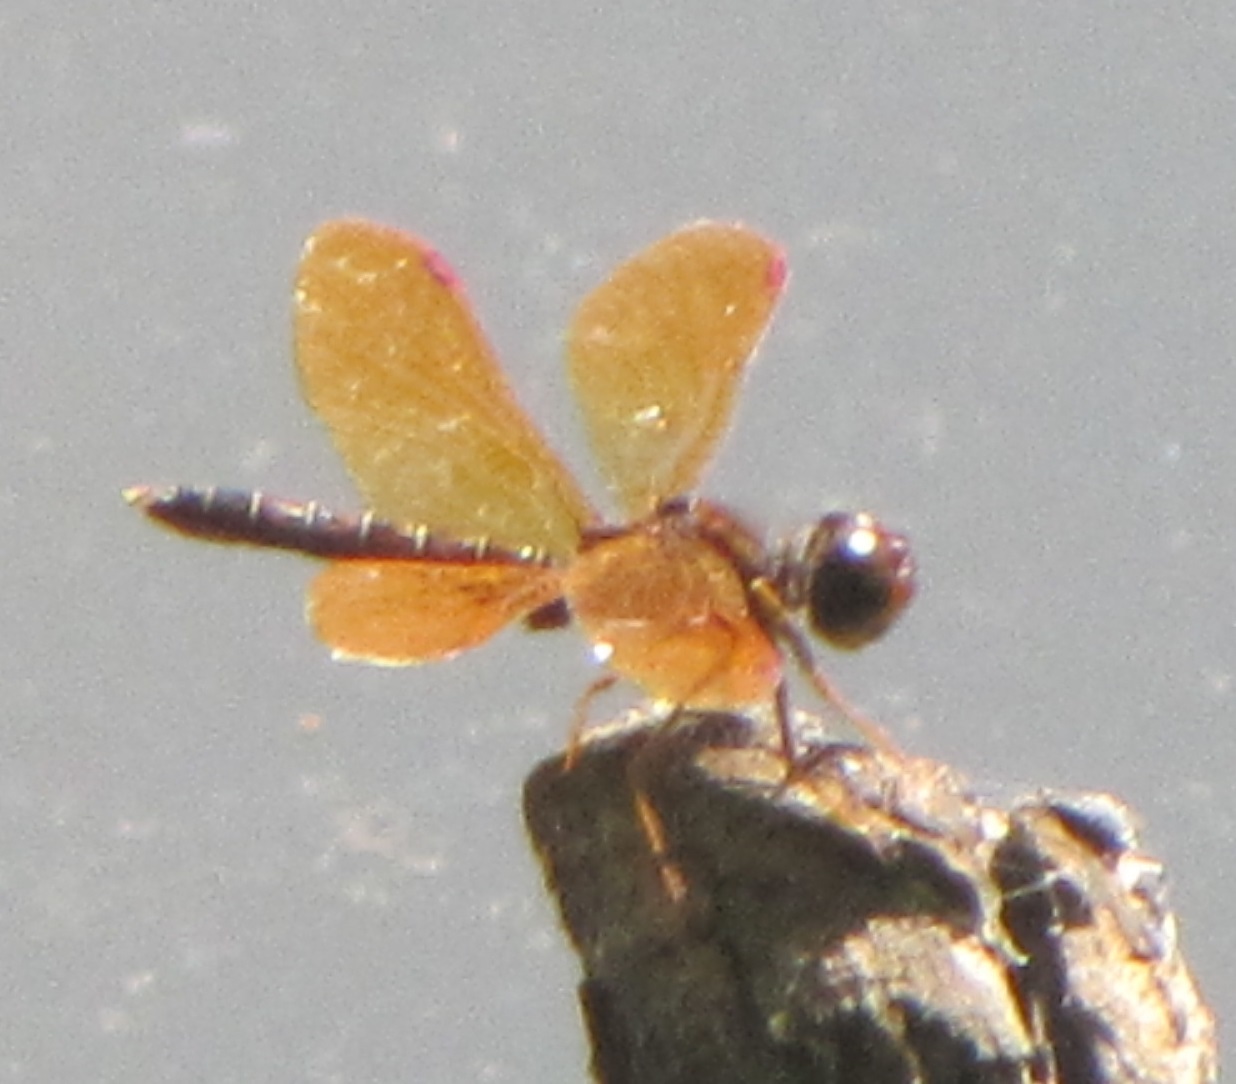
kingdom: Animalia
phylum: Arthropoda
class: Insecta
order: Odonata
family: Libellulidae
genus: Perithemis
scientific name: Perithemis tenera
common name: Eastern amberwing
